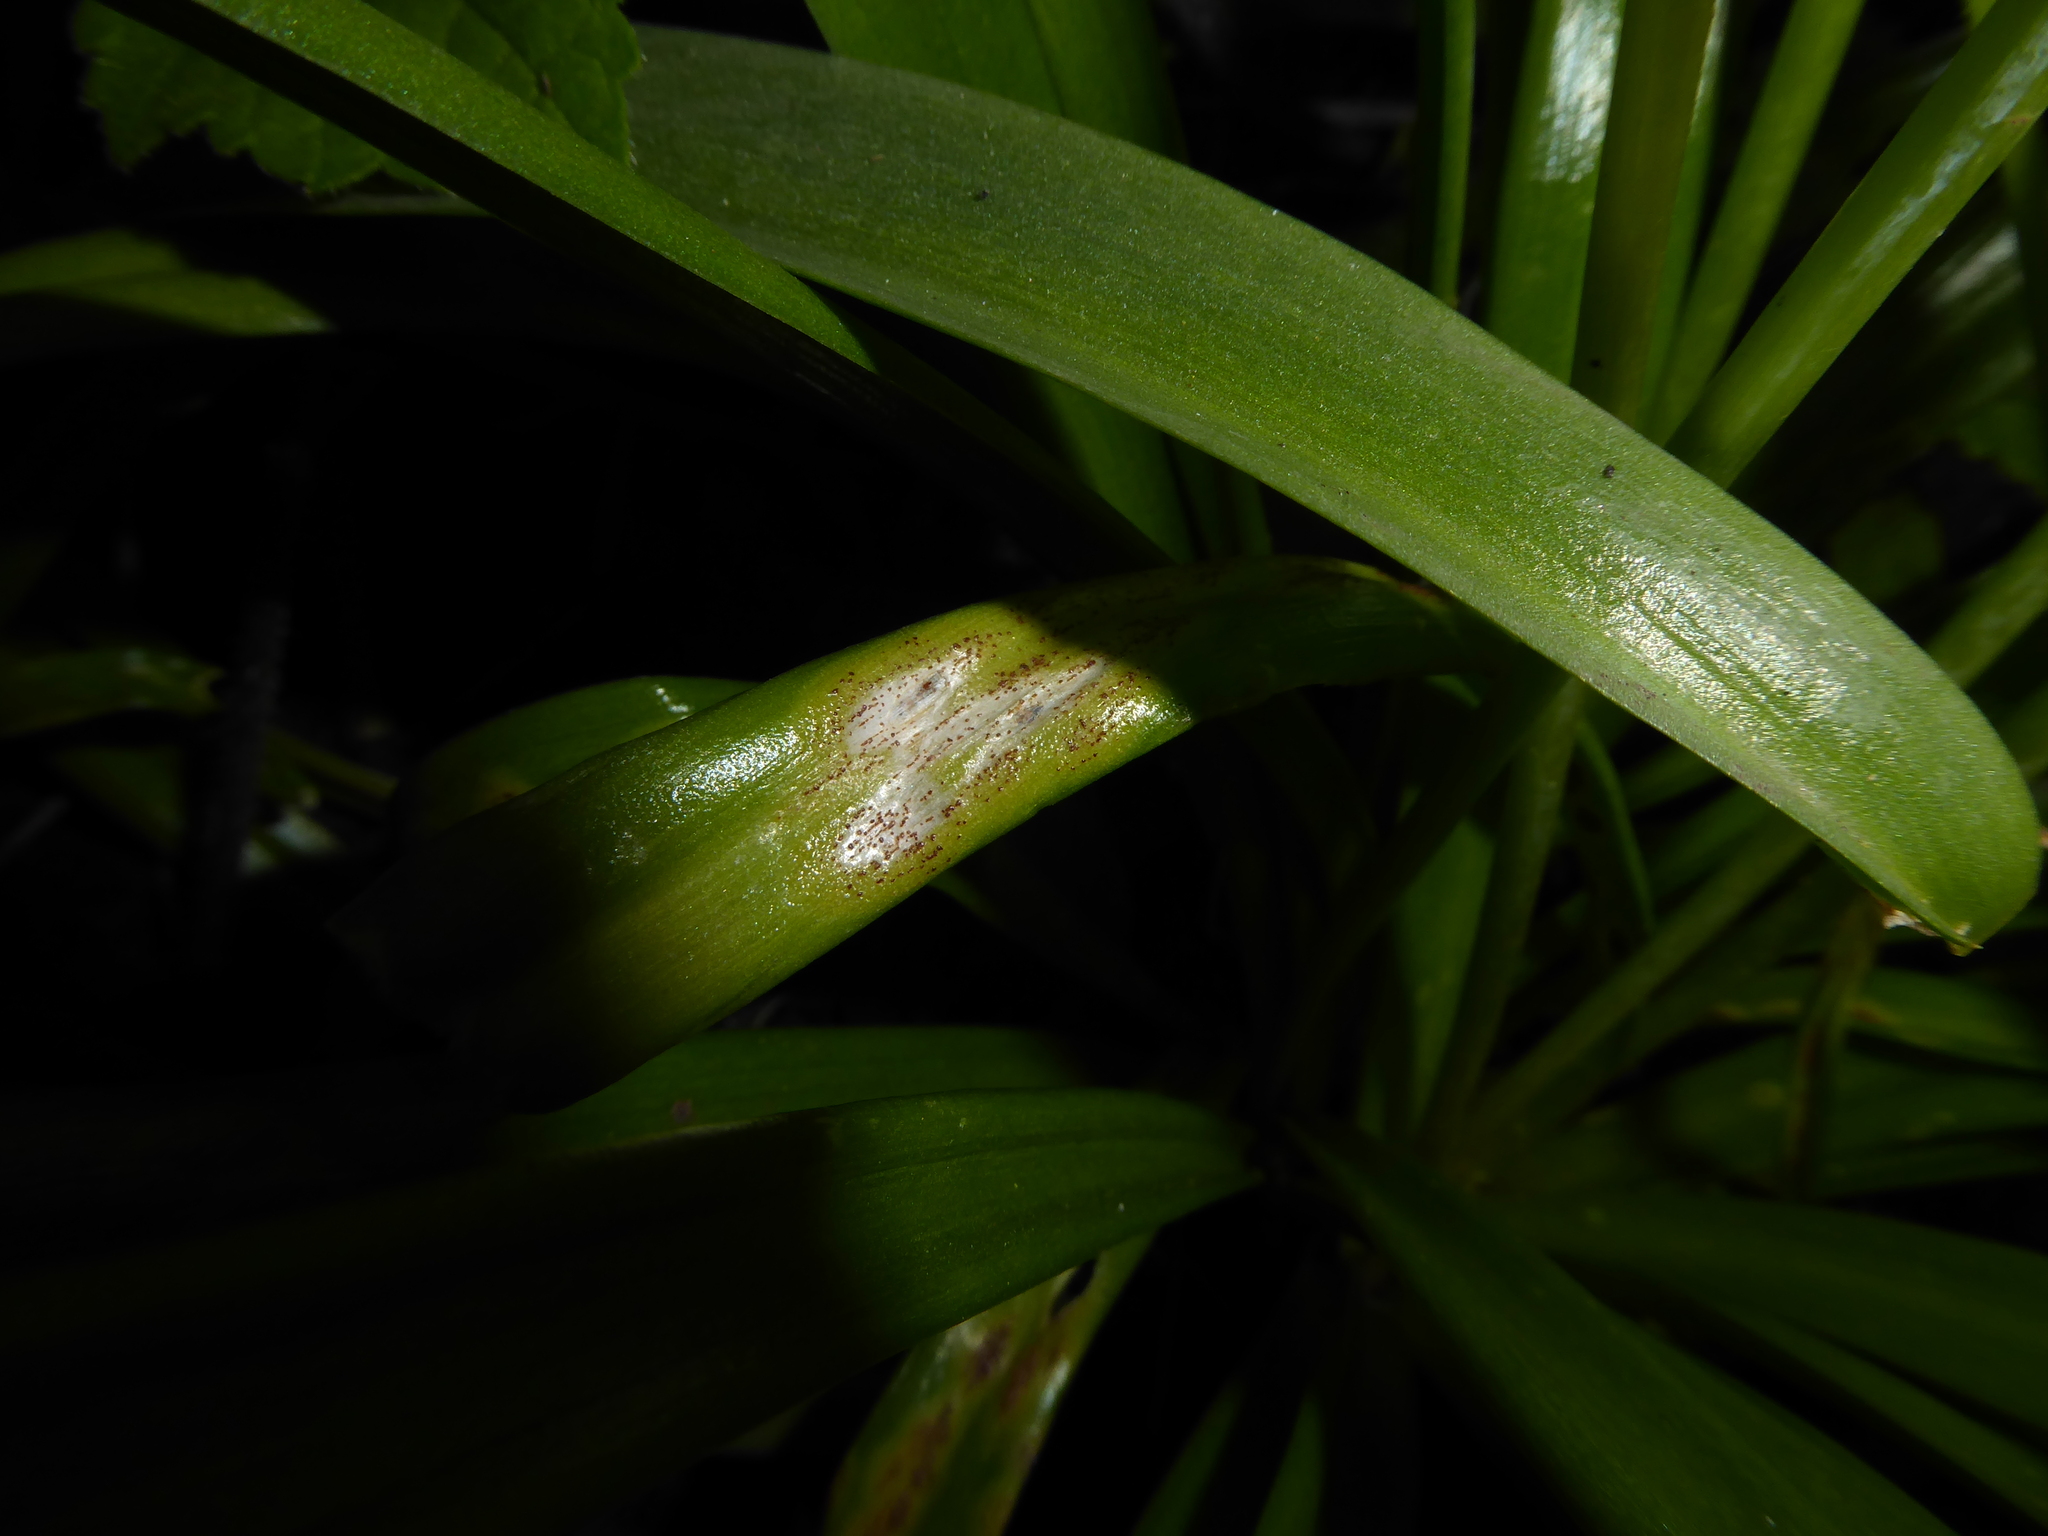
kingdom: Fungi
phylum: Basidiomycota
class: Pucciniomycetes
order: Pucciniales
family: Pucciniaceae
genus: Uromyces
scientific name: Uromyces hyacinthi
